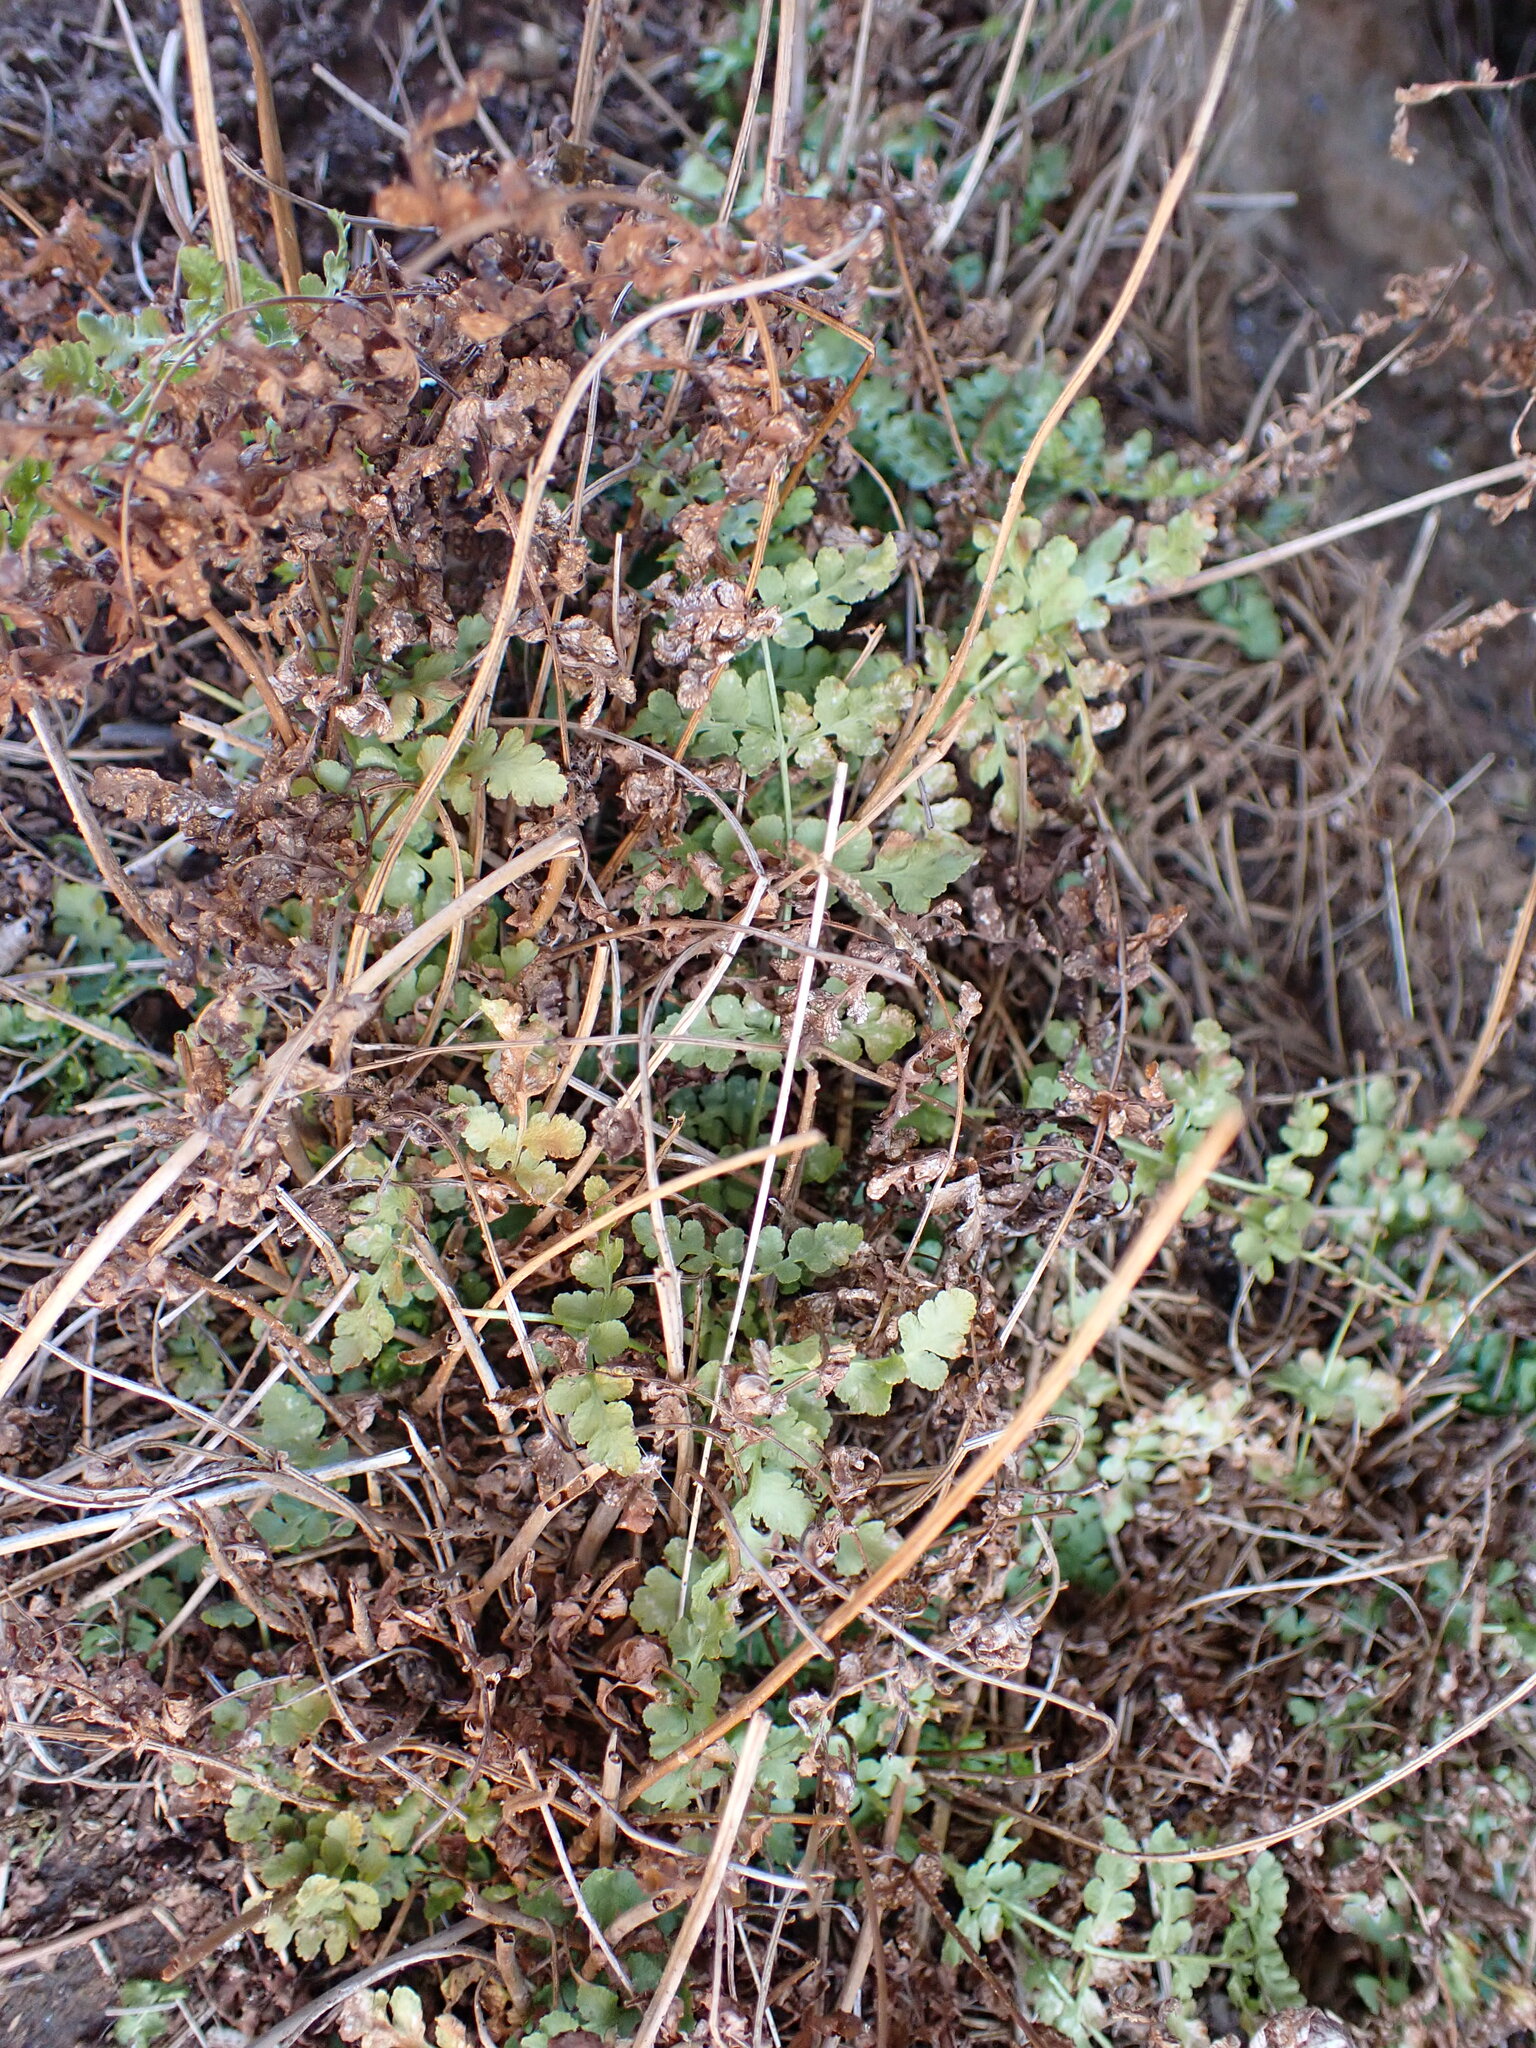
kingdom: Plantae
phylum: Tracheophyta
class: Polypodiopsida
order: Polypodiales
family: Woodsiaceae
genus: Physematium
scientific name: Physematium obtusum
